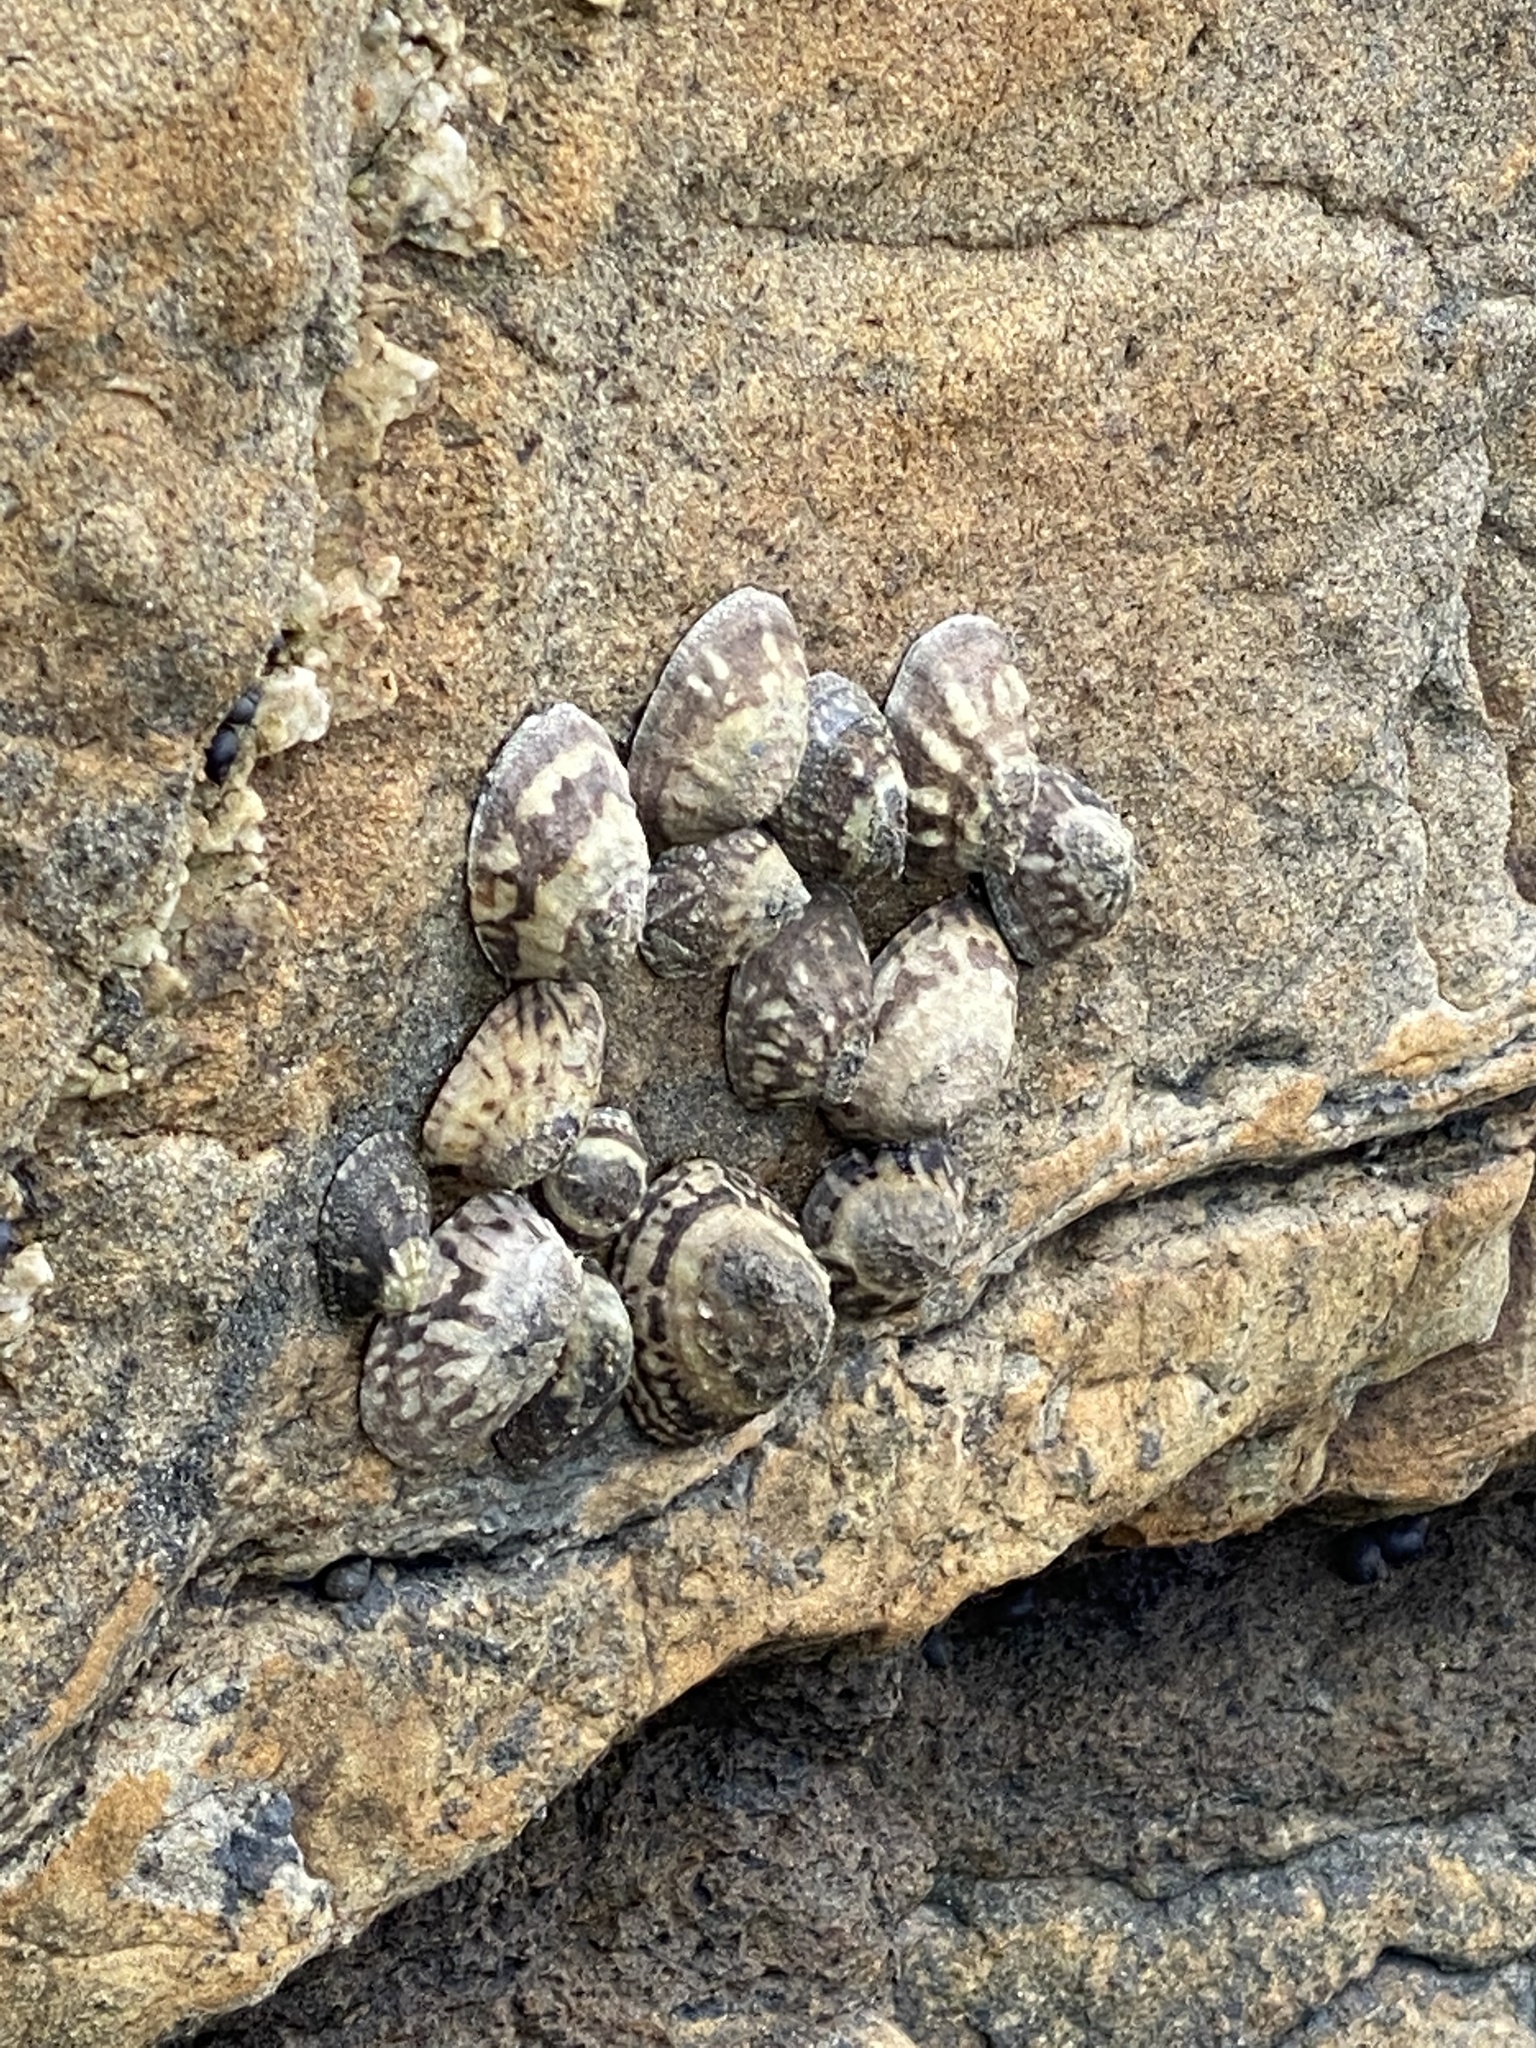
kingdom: Animalia
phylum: Mollusca
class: Gastropoda
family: Lottiidae
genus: Lottia
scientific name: Lottia digitalis
